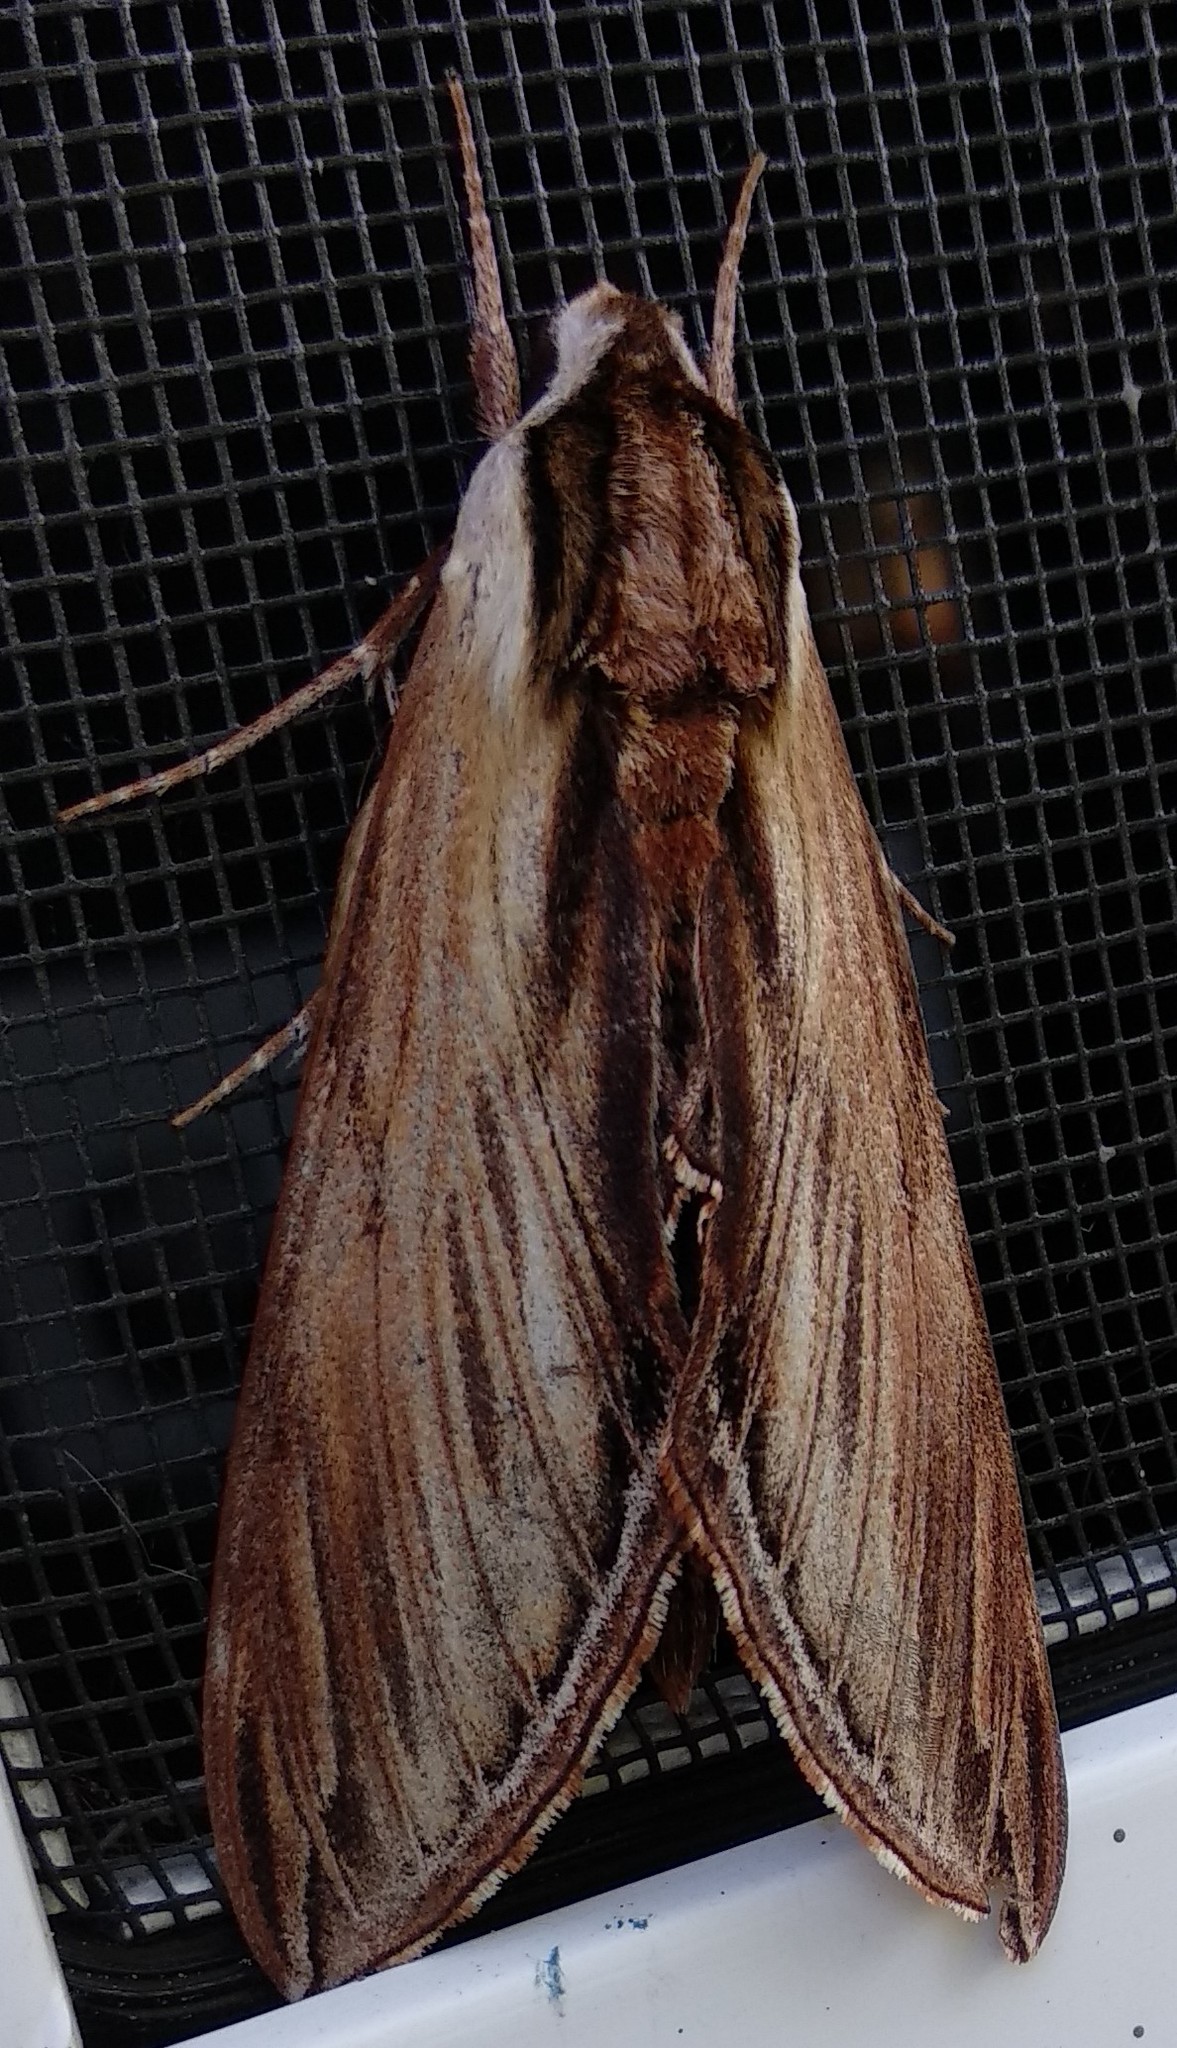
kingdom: Animalia
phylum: Arthropoda
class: Insecta
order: Lepidoptera
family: Sphingidae
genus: Sphinx
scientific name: Sphinx kalmiae
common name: Laurel sphinx
